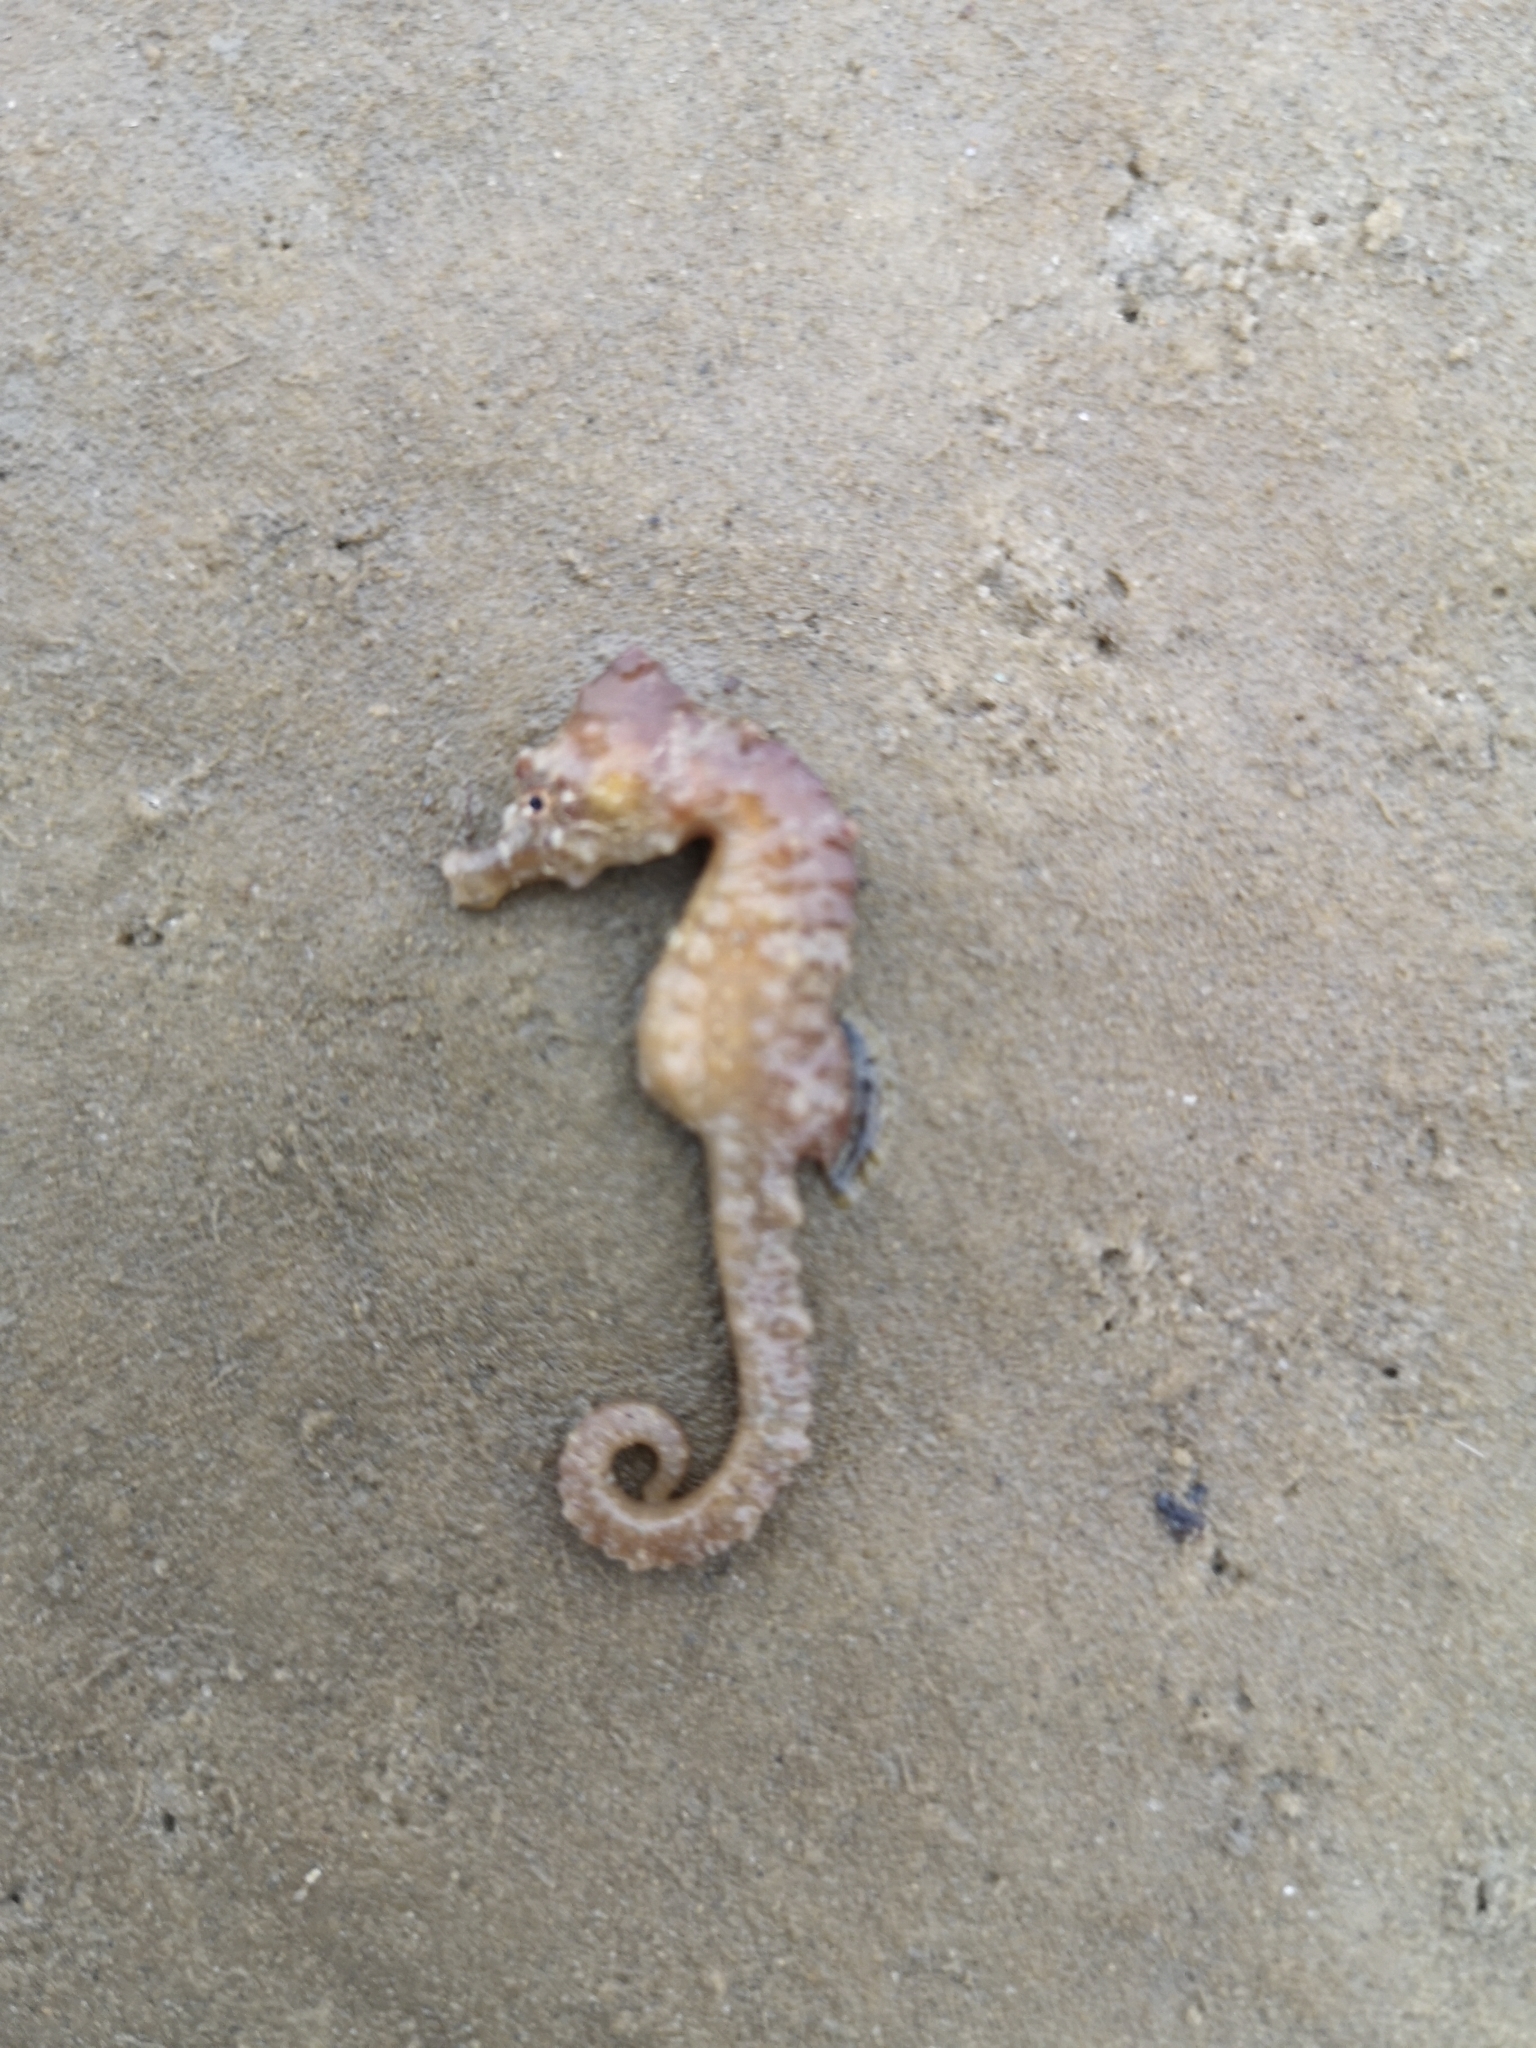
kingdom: Animalia
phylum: Chordata
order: Syngnathiformes
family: Syngnathidae
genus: Hippocampus
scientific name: Hippocampus hippocampus
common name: Short-snouted seahorse
